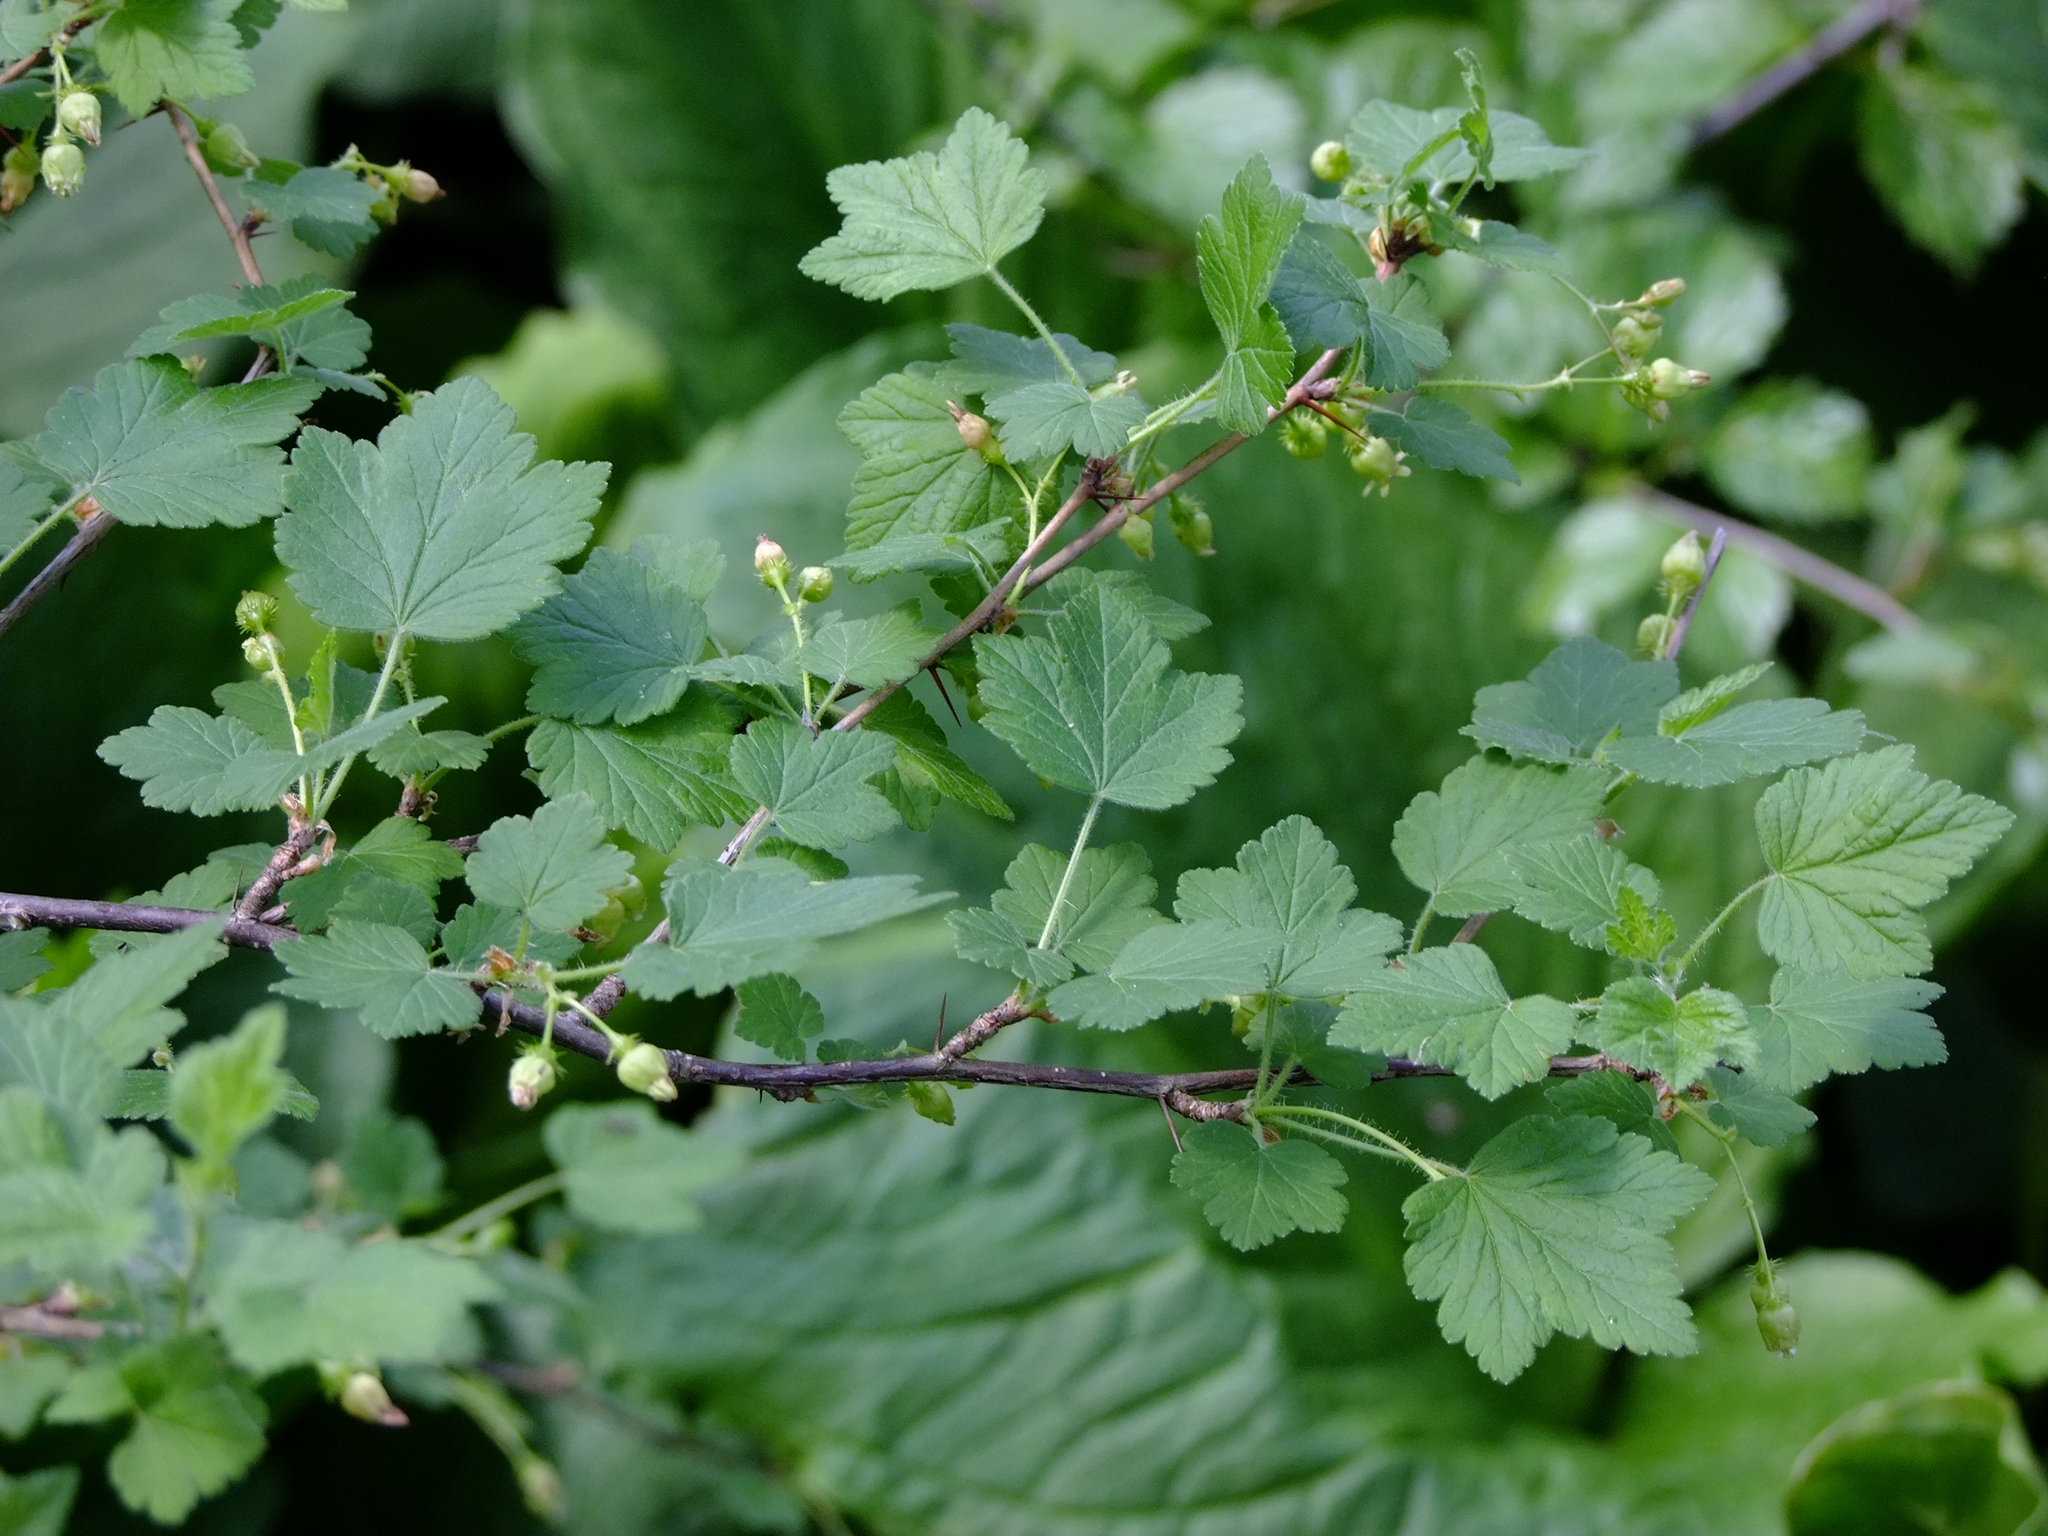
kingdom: Plantae
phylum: Tracheophyta
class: Magnoliopsida
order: Saxifragales
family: Grossulariaceae
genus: Ribes
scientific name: Ribes hirtellum
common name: Hairy gooseberry
